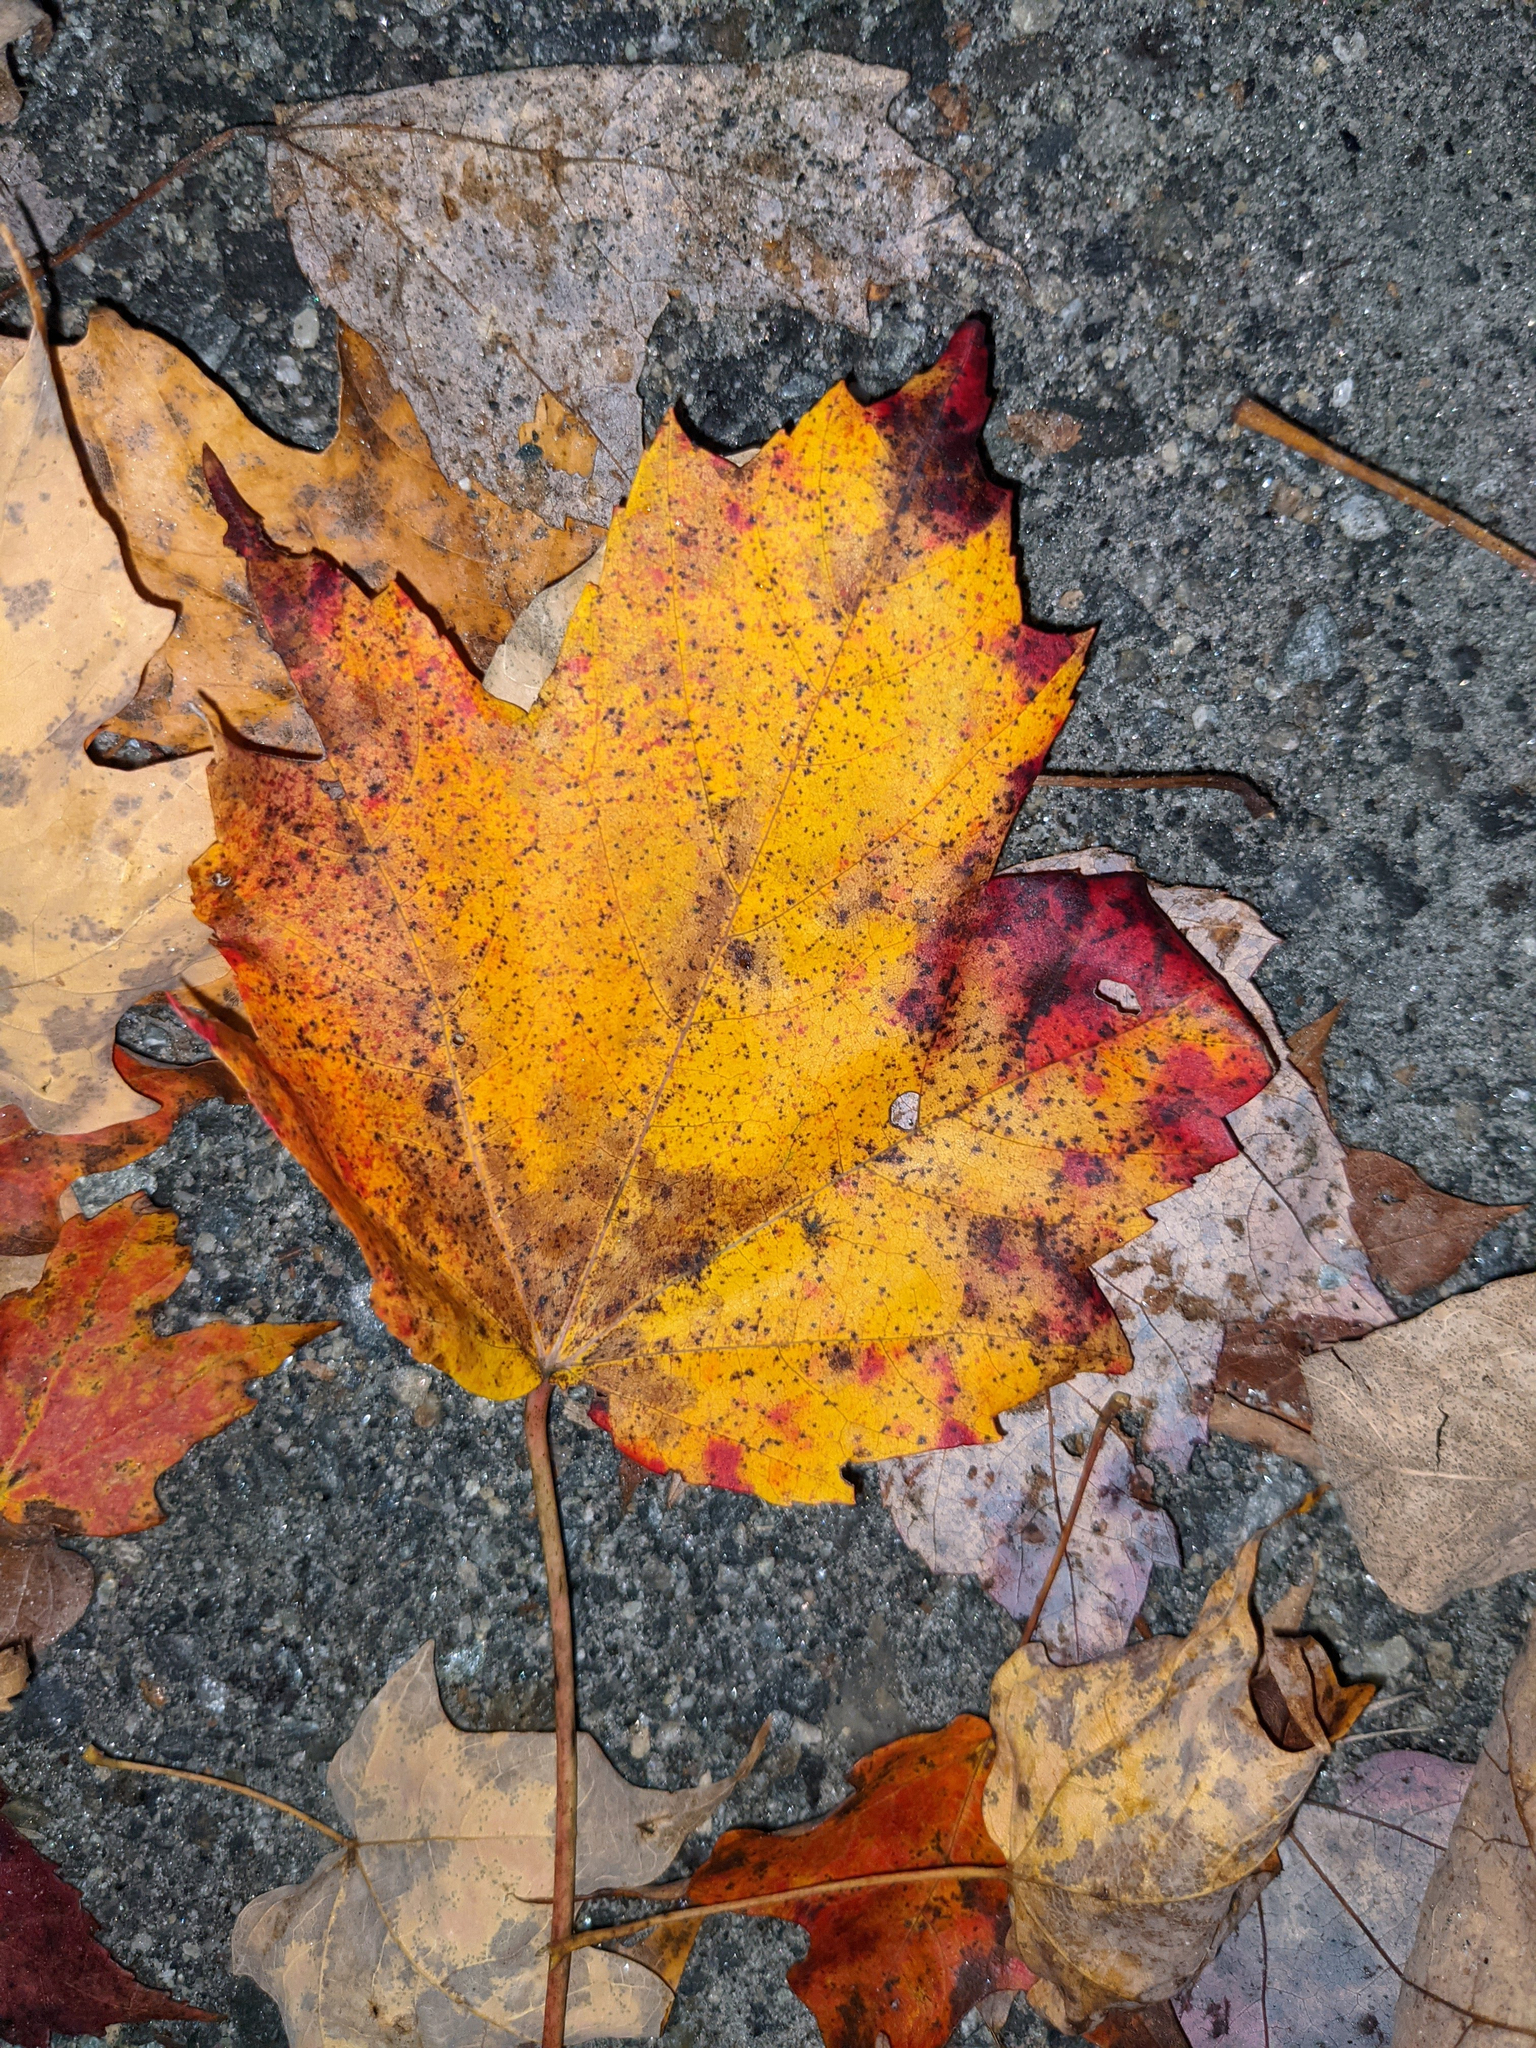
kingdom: Plantae
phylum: Tracheophyta
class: Magnoliopsida
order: Sapindales
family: Sapindaceae
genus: Acer
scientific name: Acer saccharum
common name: Sugar maple
